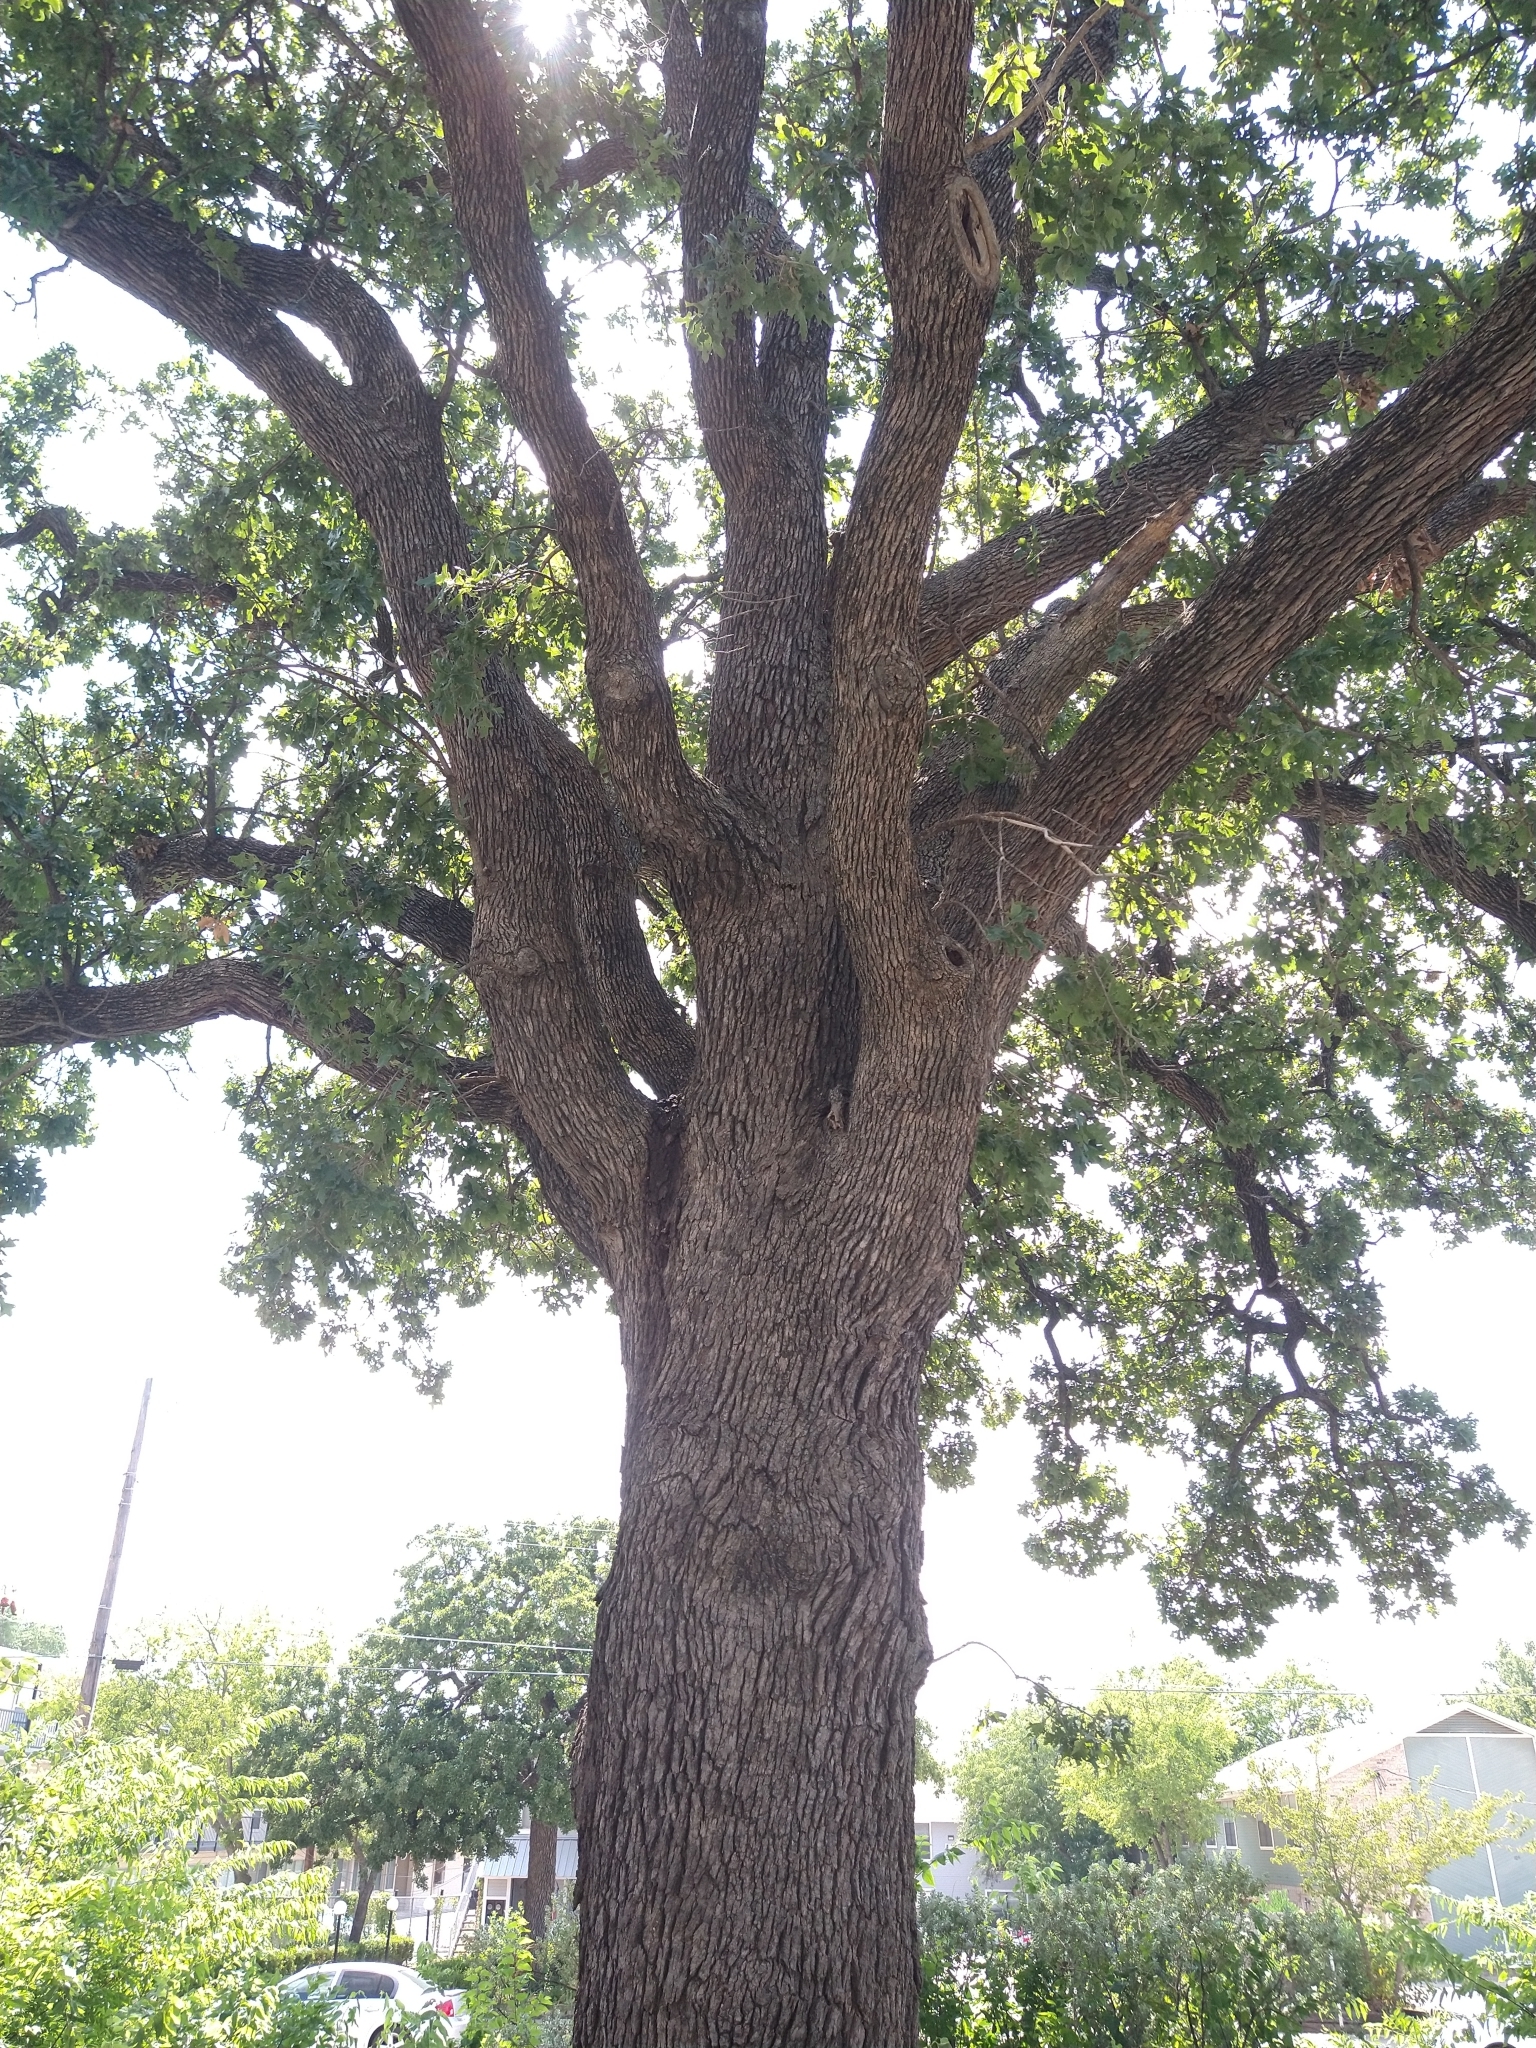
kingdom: Plantae
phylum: Tracheophyta
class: Magnoliopsida
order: Fagales
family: Fagaceae
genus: Quercus
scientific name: Quercus stellata
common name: Post oak
